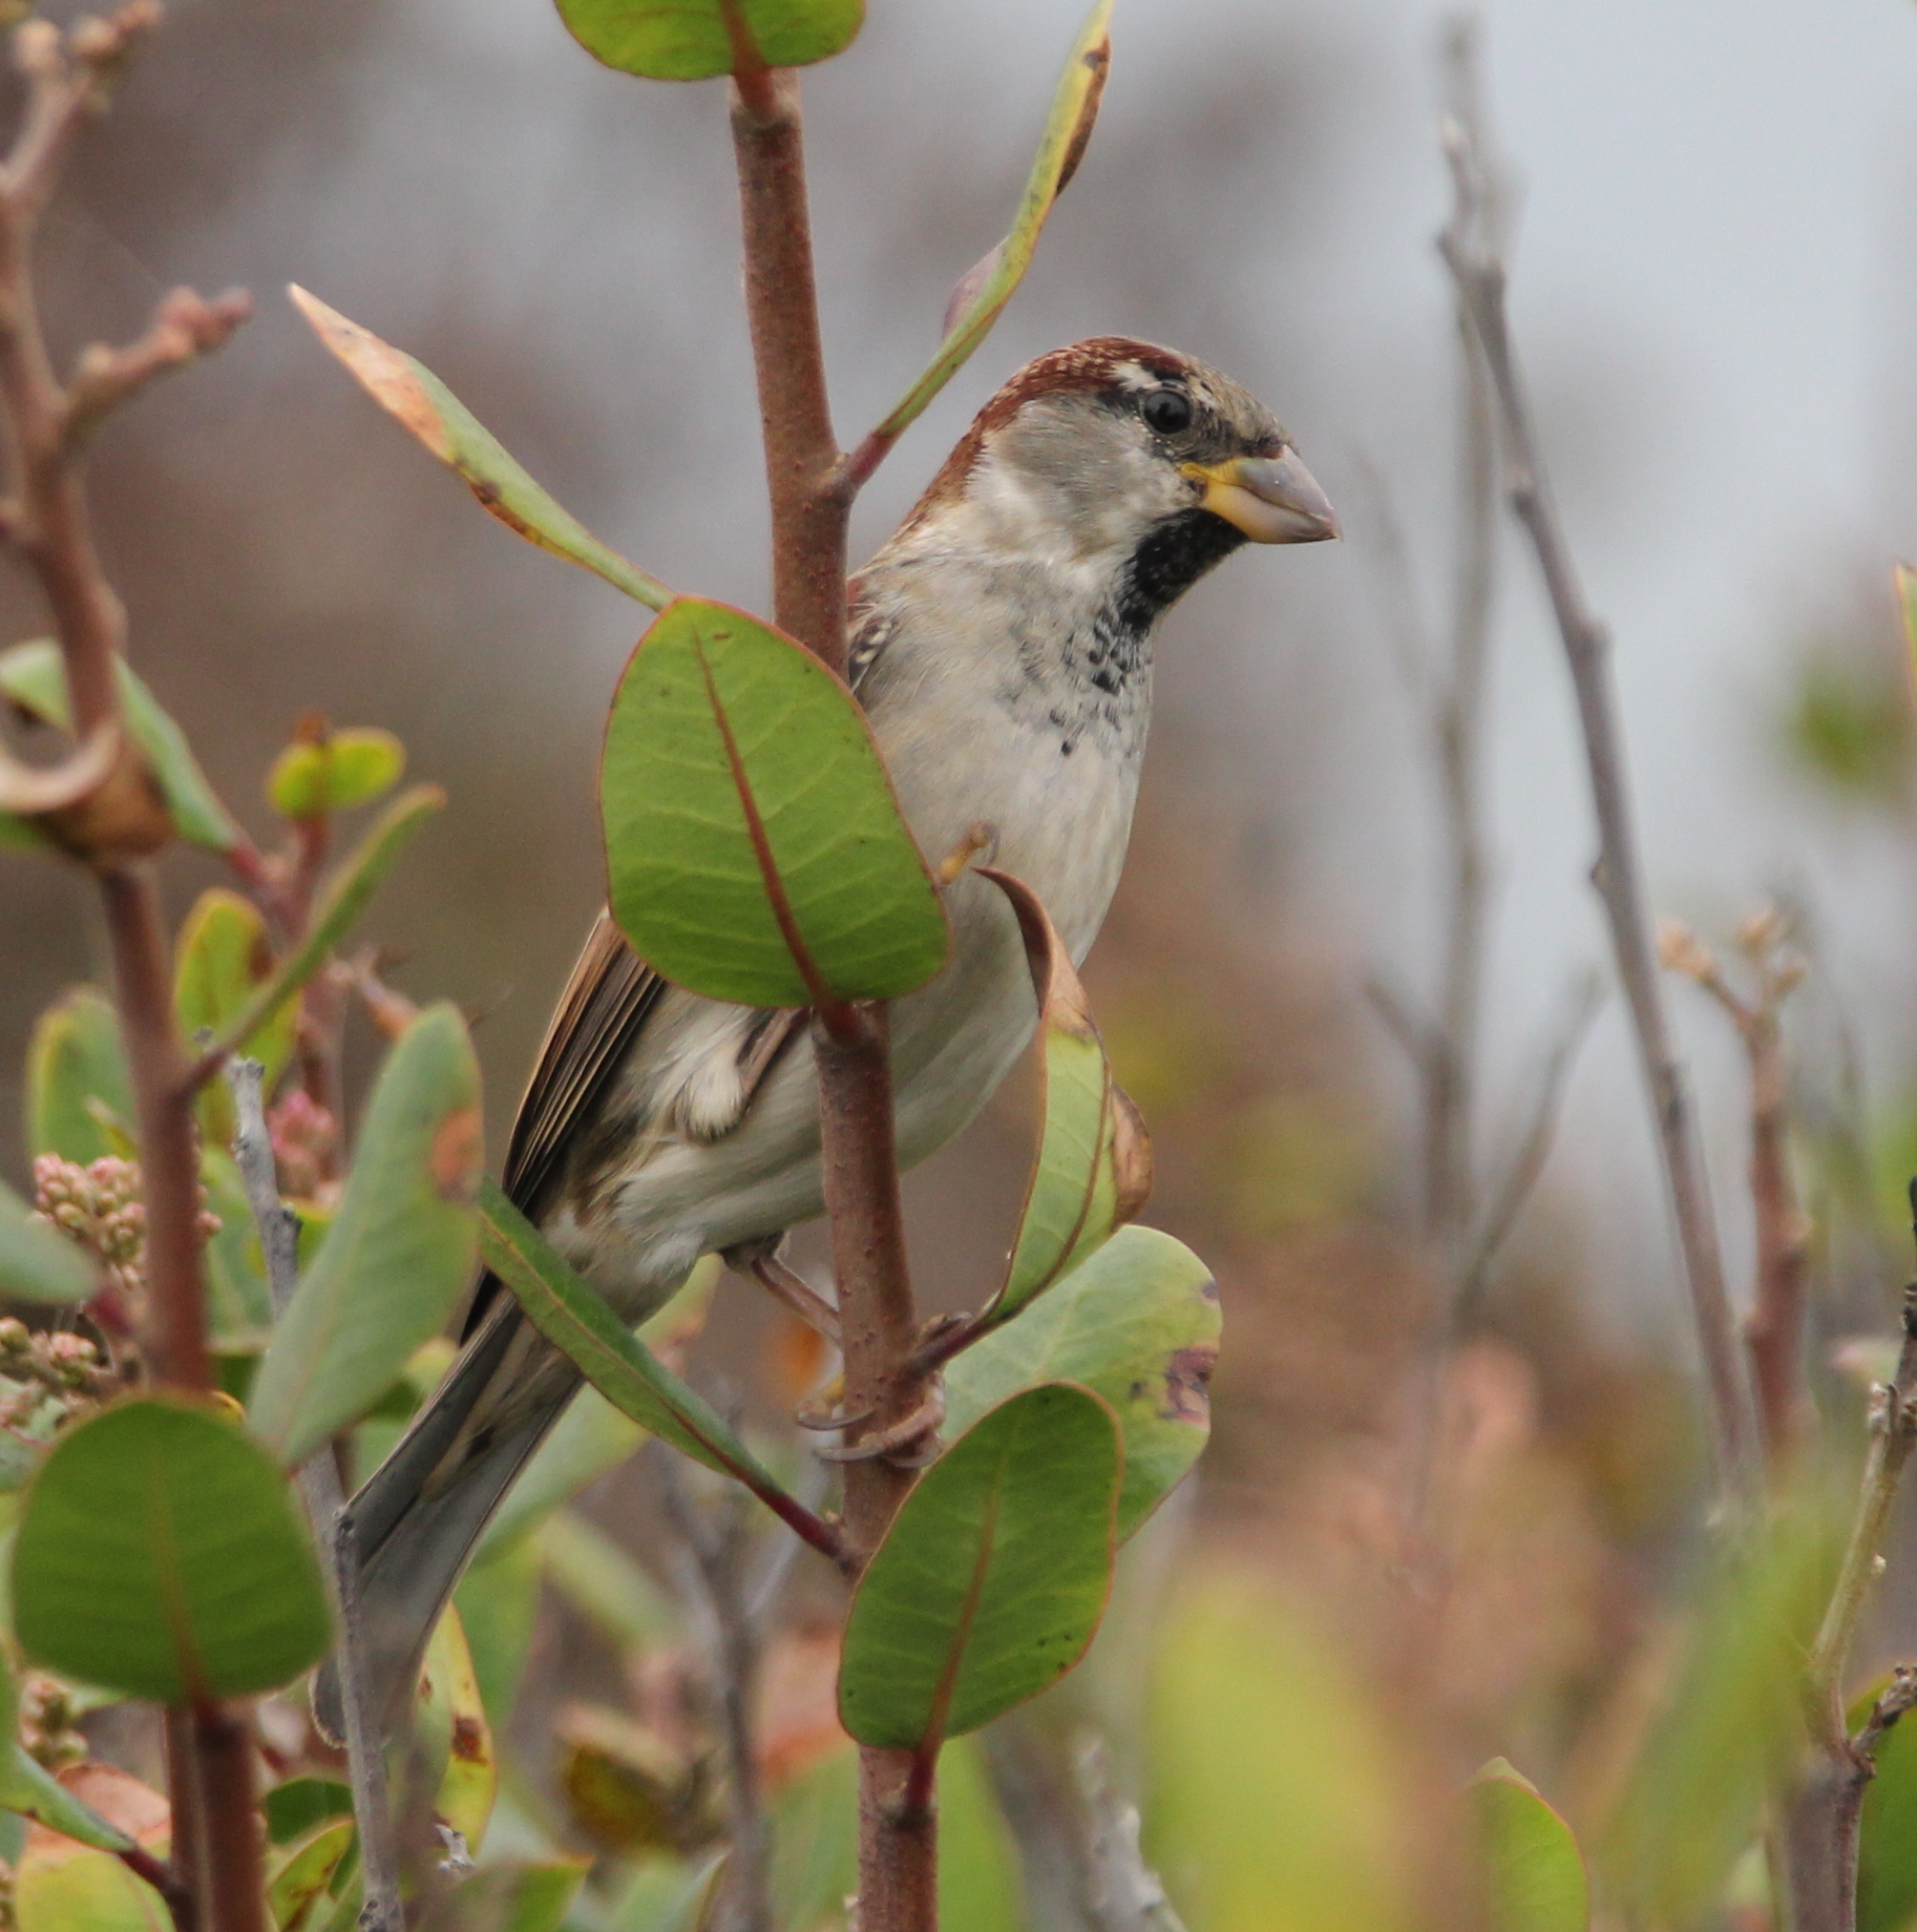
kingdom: Animalia
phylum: Chordata
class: Aves
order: Passeriformes
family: Passeridae
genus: Passer
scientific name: Passer domesticus
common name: House sparrow
